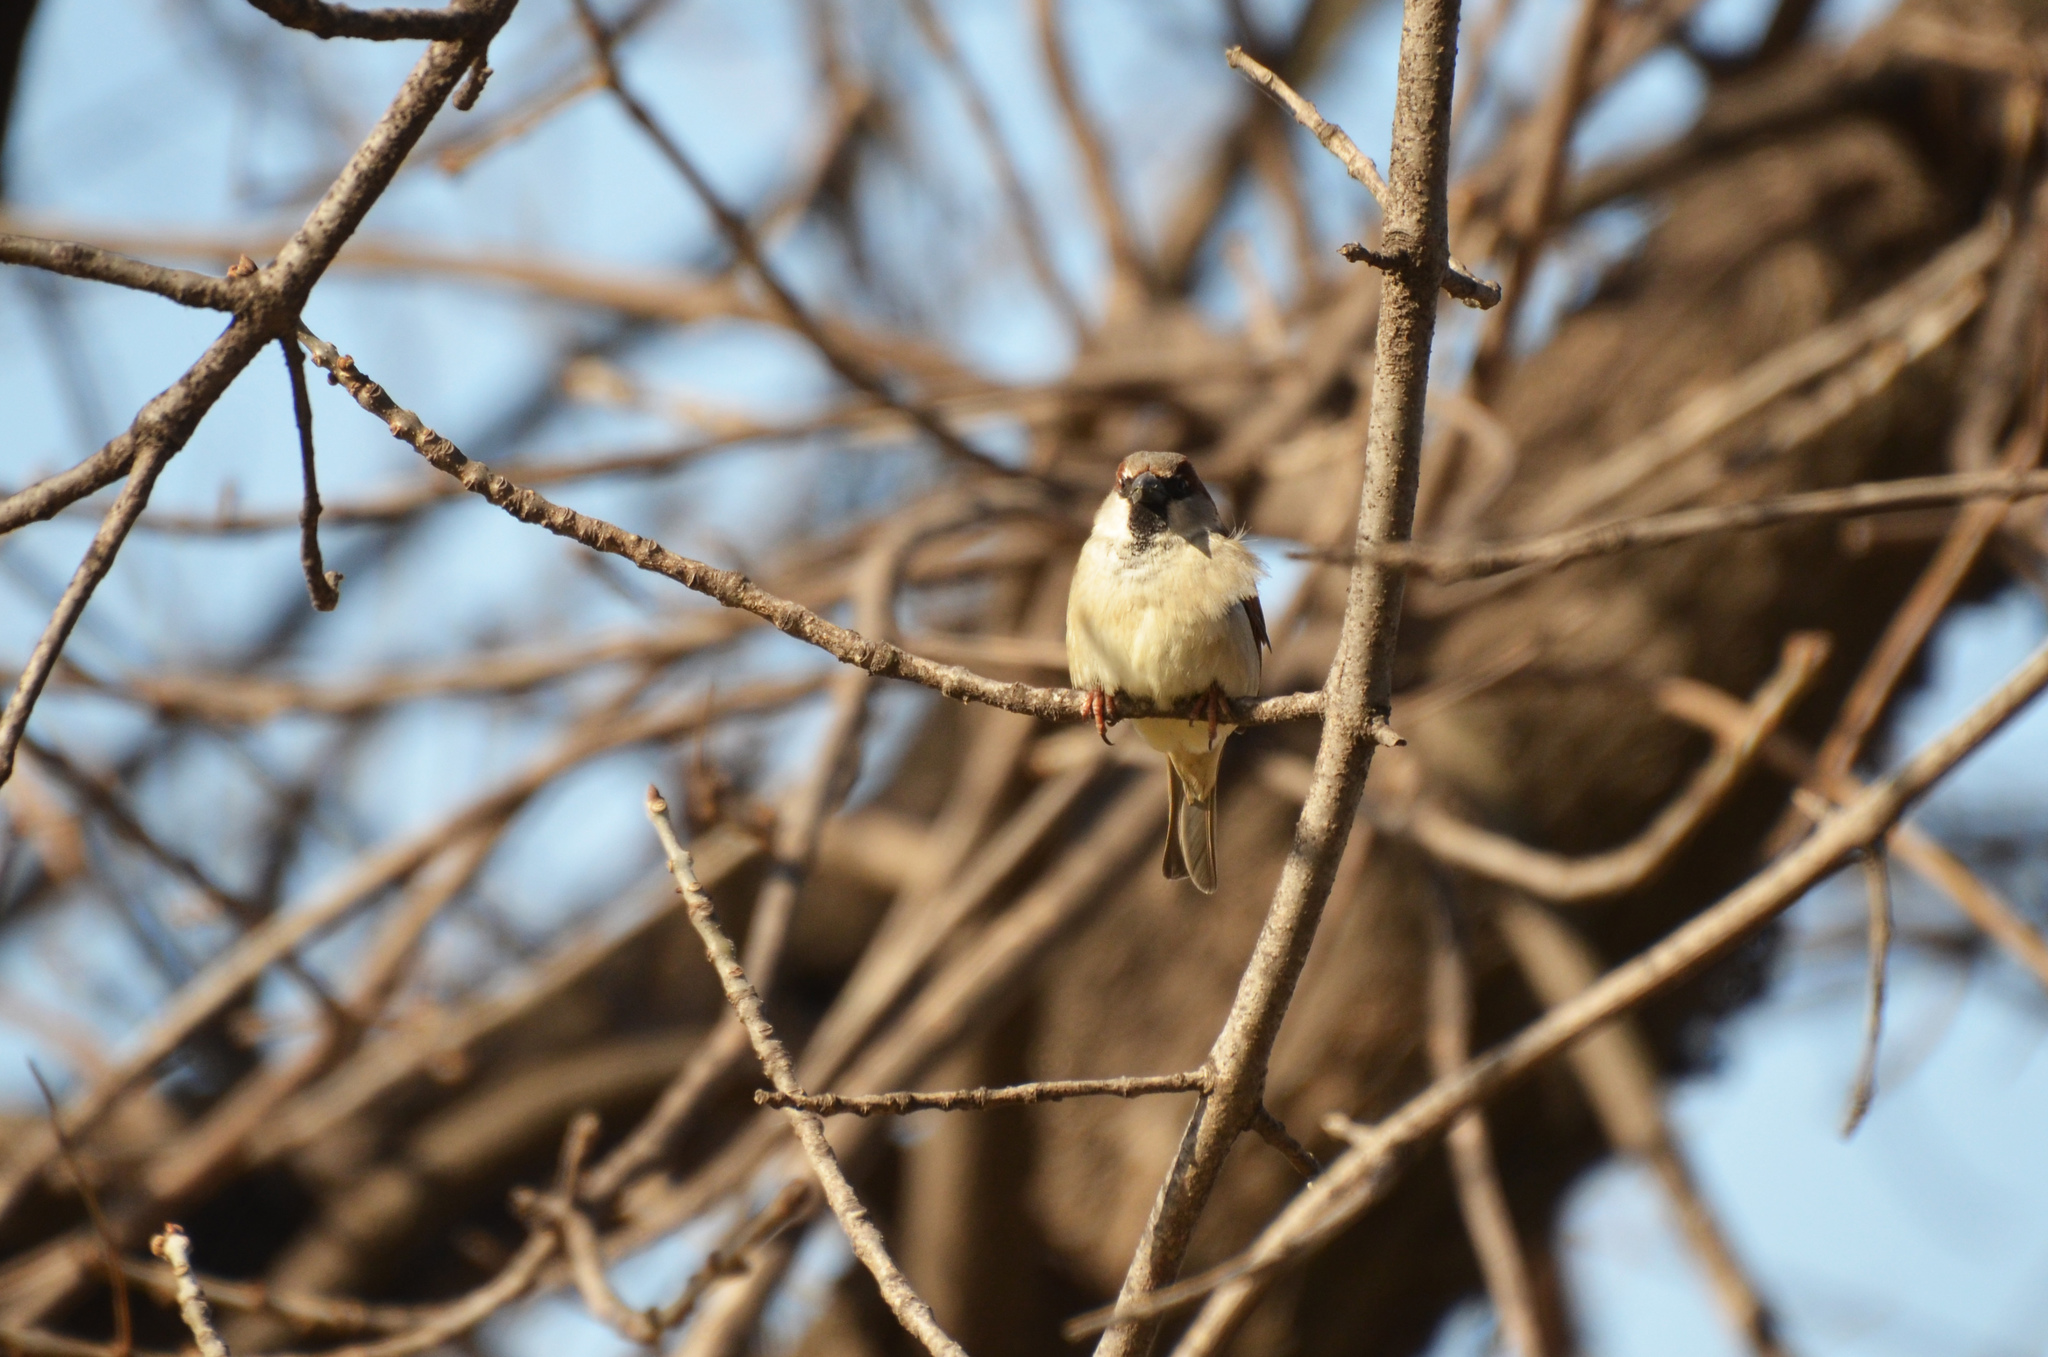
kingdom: Animalia
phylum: Chordata
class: Aves
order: Passeriformes
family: Passeridae
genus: Passer
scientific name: Passer domesticus
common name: House sparrow
